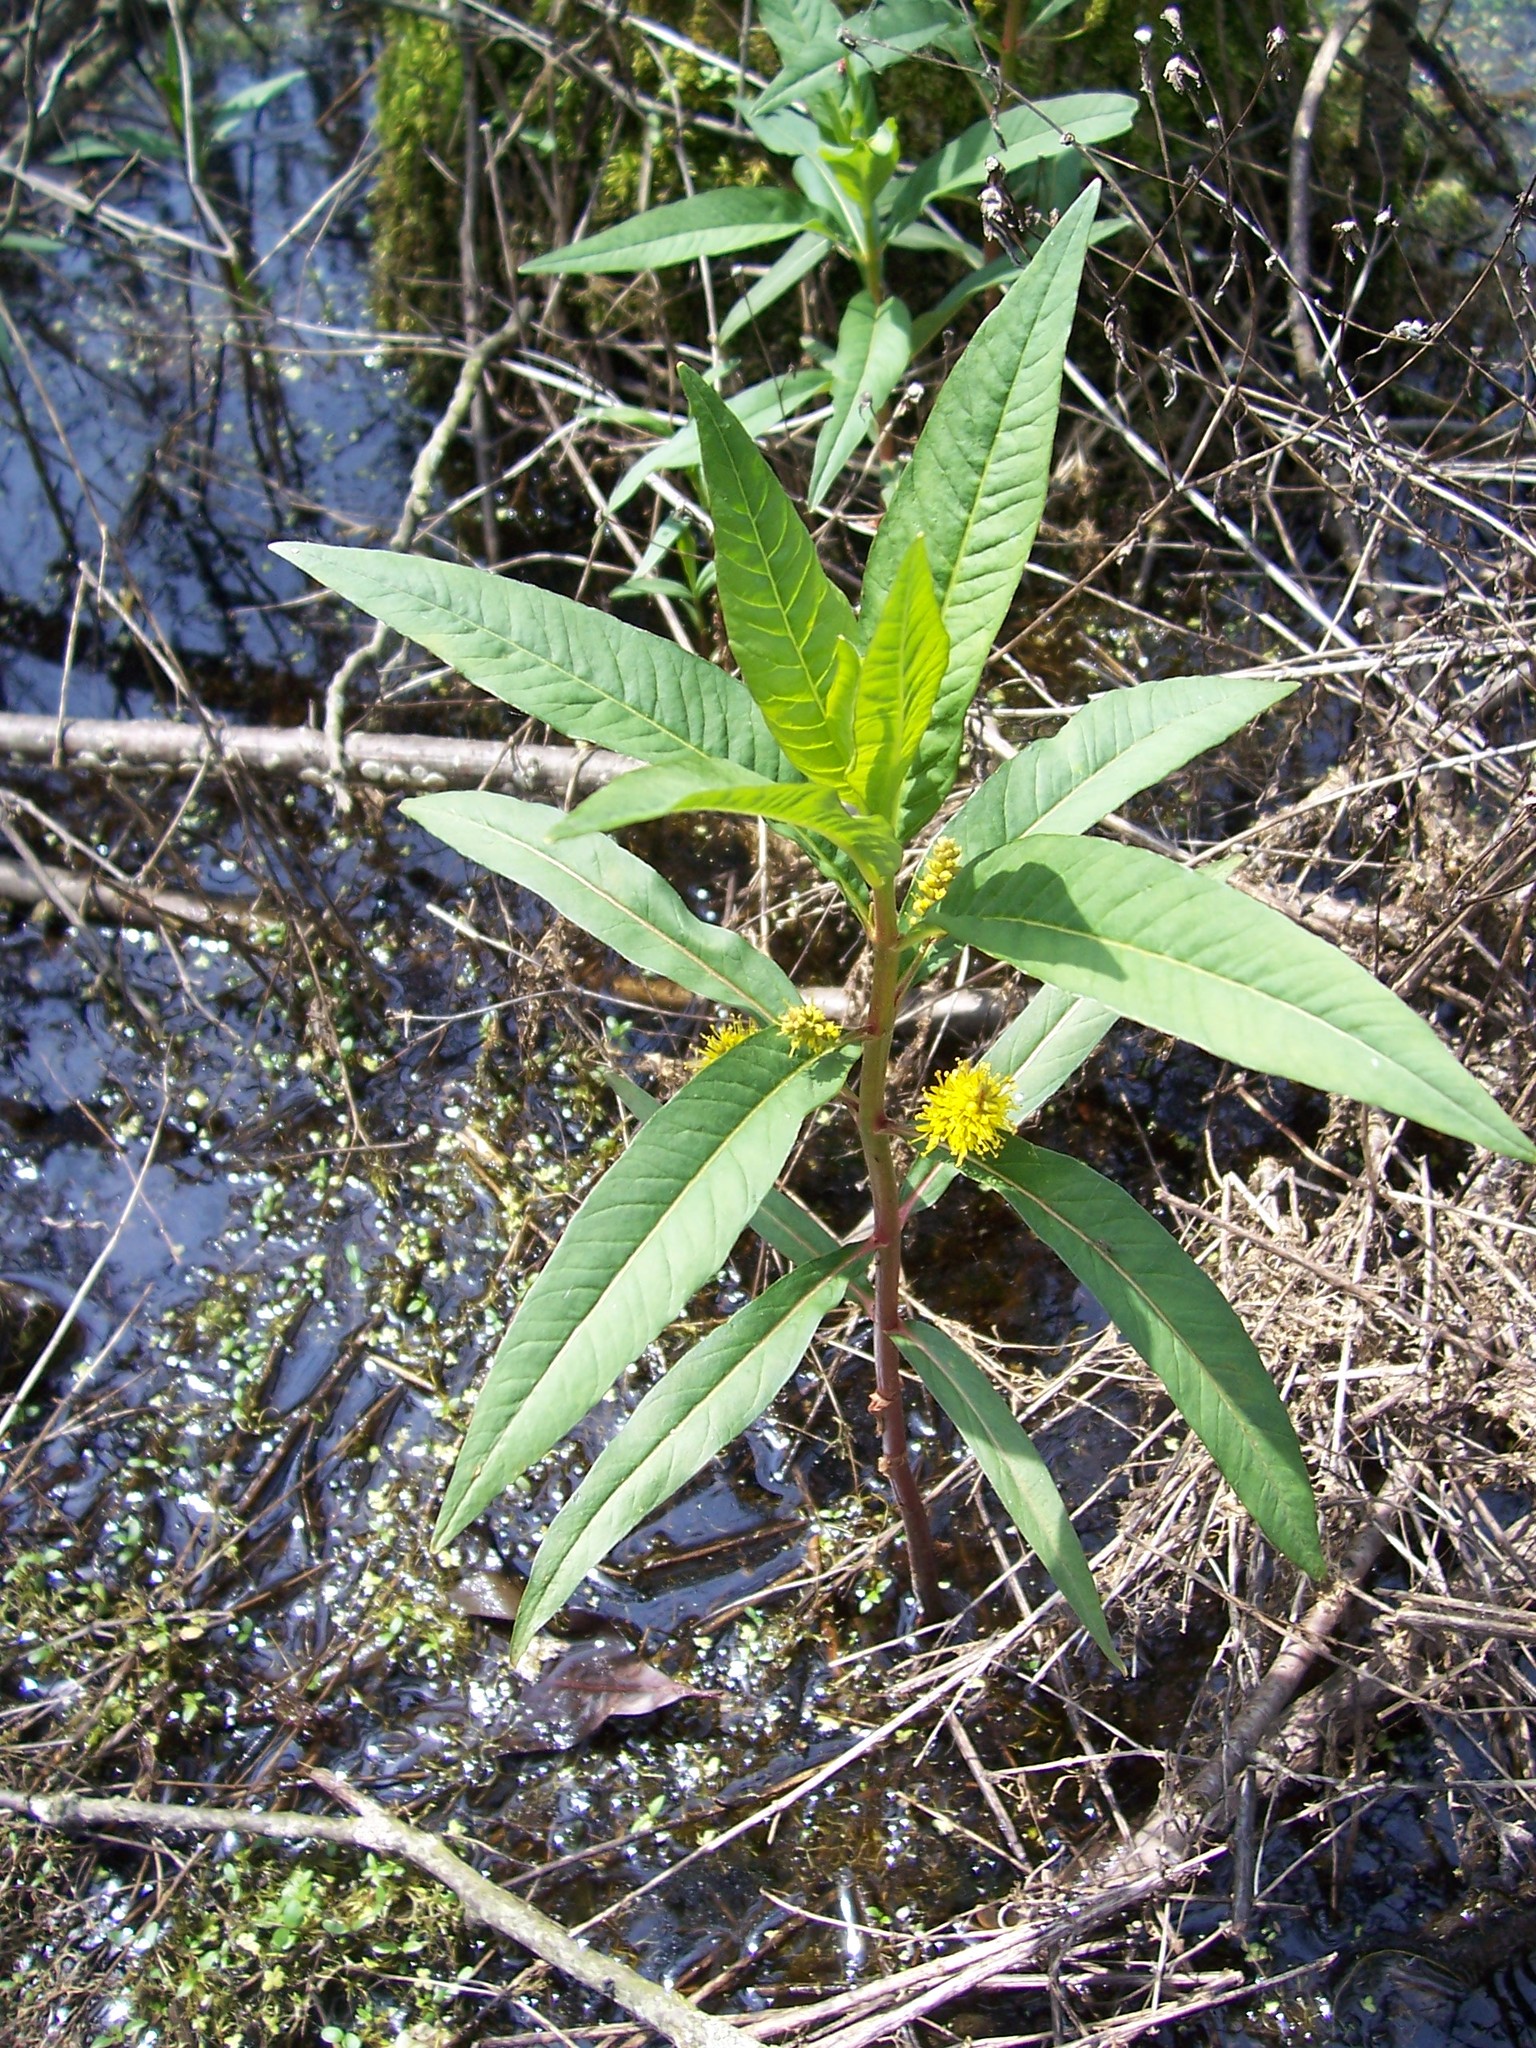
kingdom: Plantae
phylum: Tracheophyta
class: Magnoliopsida
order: Ericales
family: Primulaceae
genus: Lysimachia
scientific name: Lysimachia thyrsiflora
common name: Tufted loosestrife
